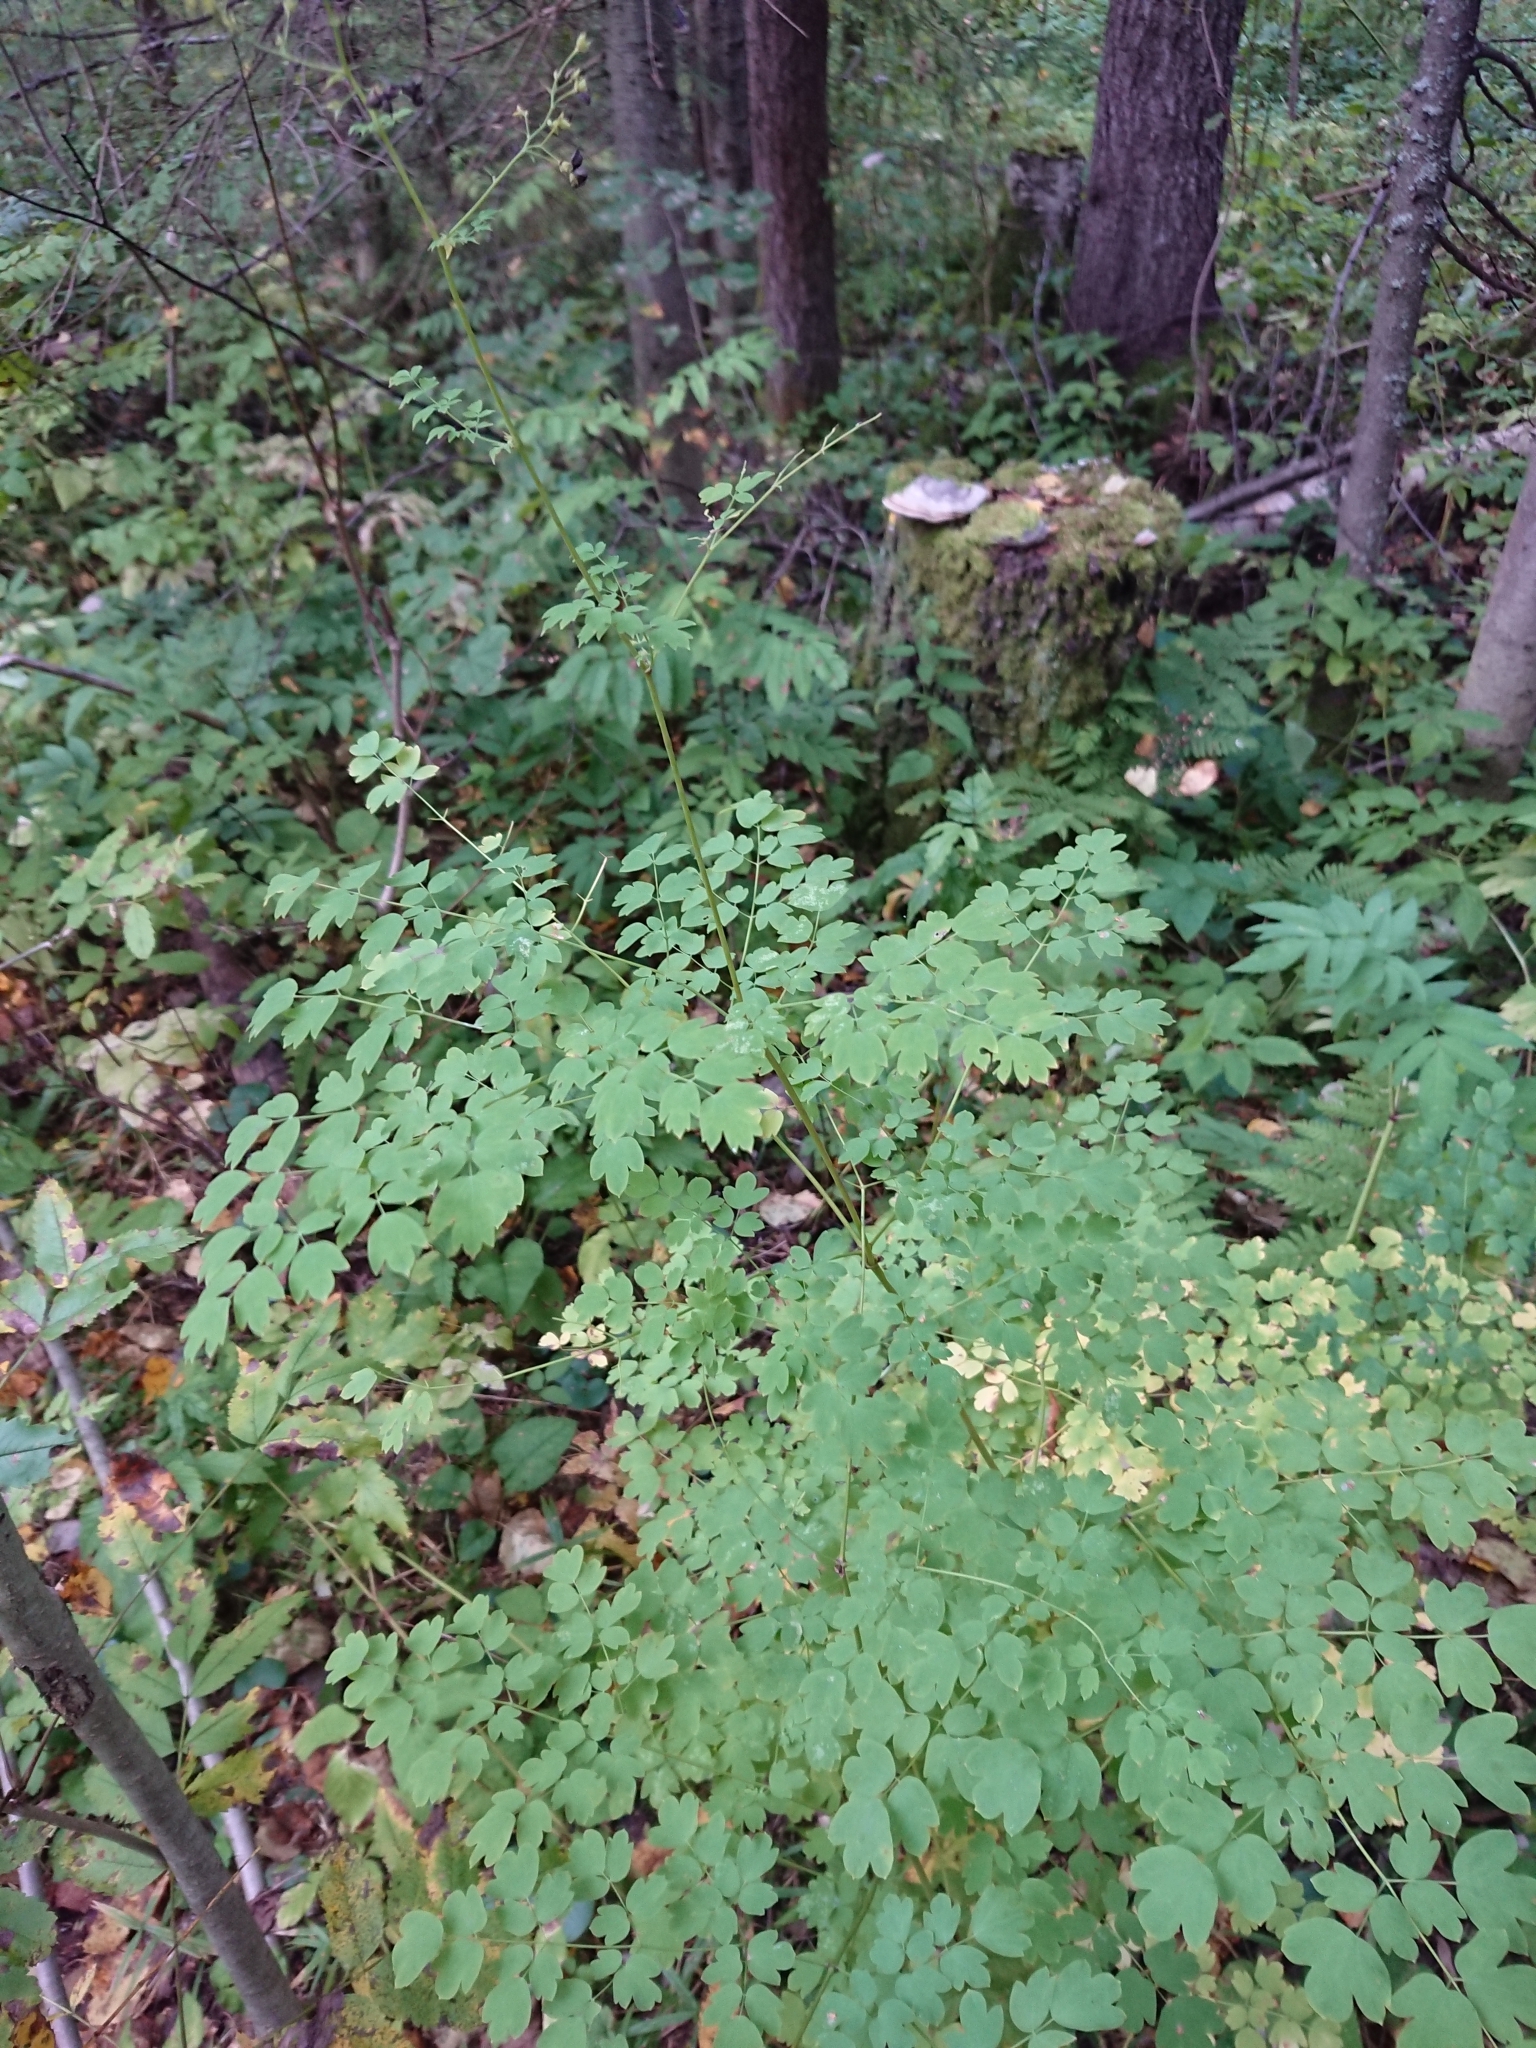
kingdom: Plantae
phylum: Tracheophyta
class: Magnoliopsida
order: Ranunculales
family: Ranunculaceae
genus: Thalictrum
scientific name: Thalictrum minus
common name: Lesser meadow-rue
